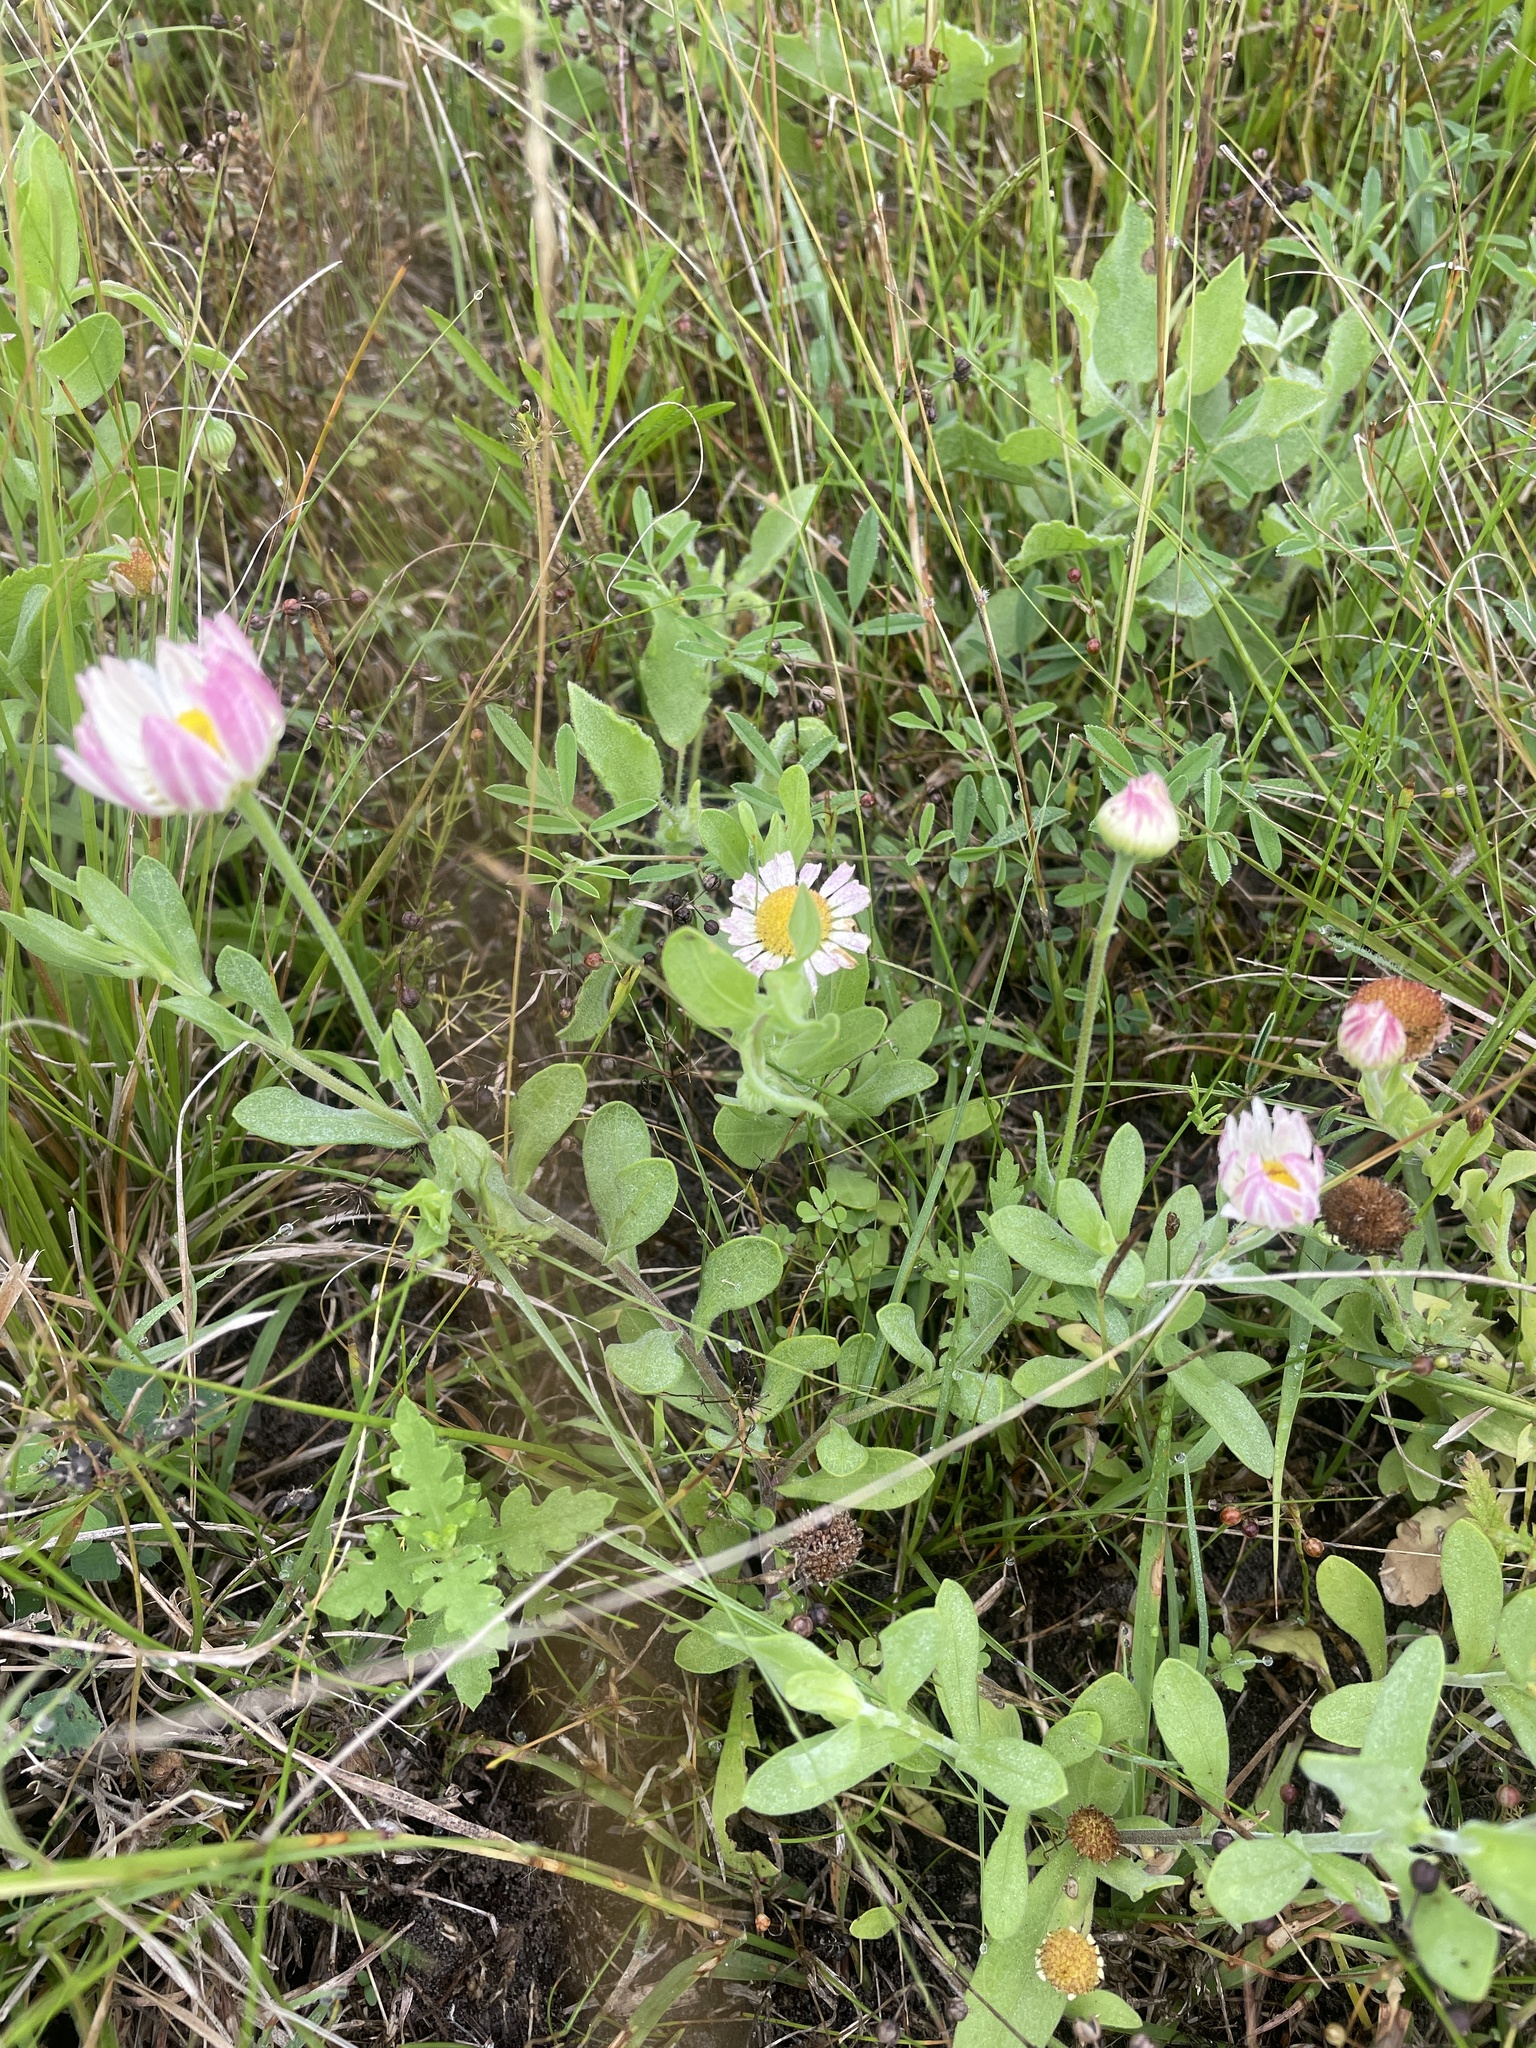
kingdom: Plantae
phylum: Tracheophyta
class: Magnoliopsida
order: Asterales
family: Asteraceae
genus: Aphanostephus
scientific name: Aphanostephus skirrhobasis
